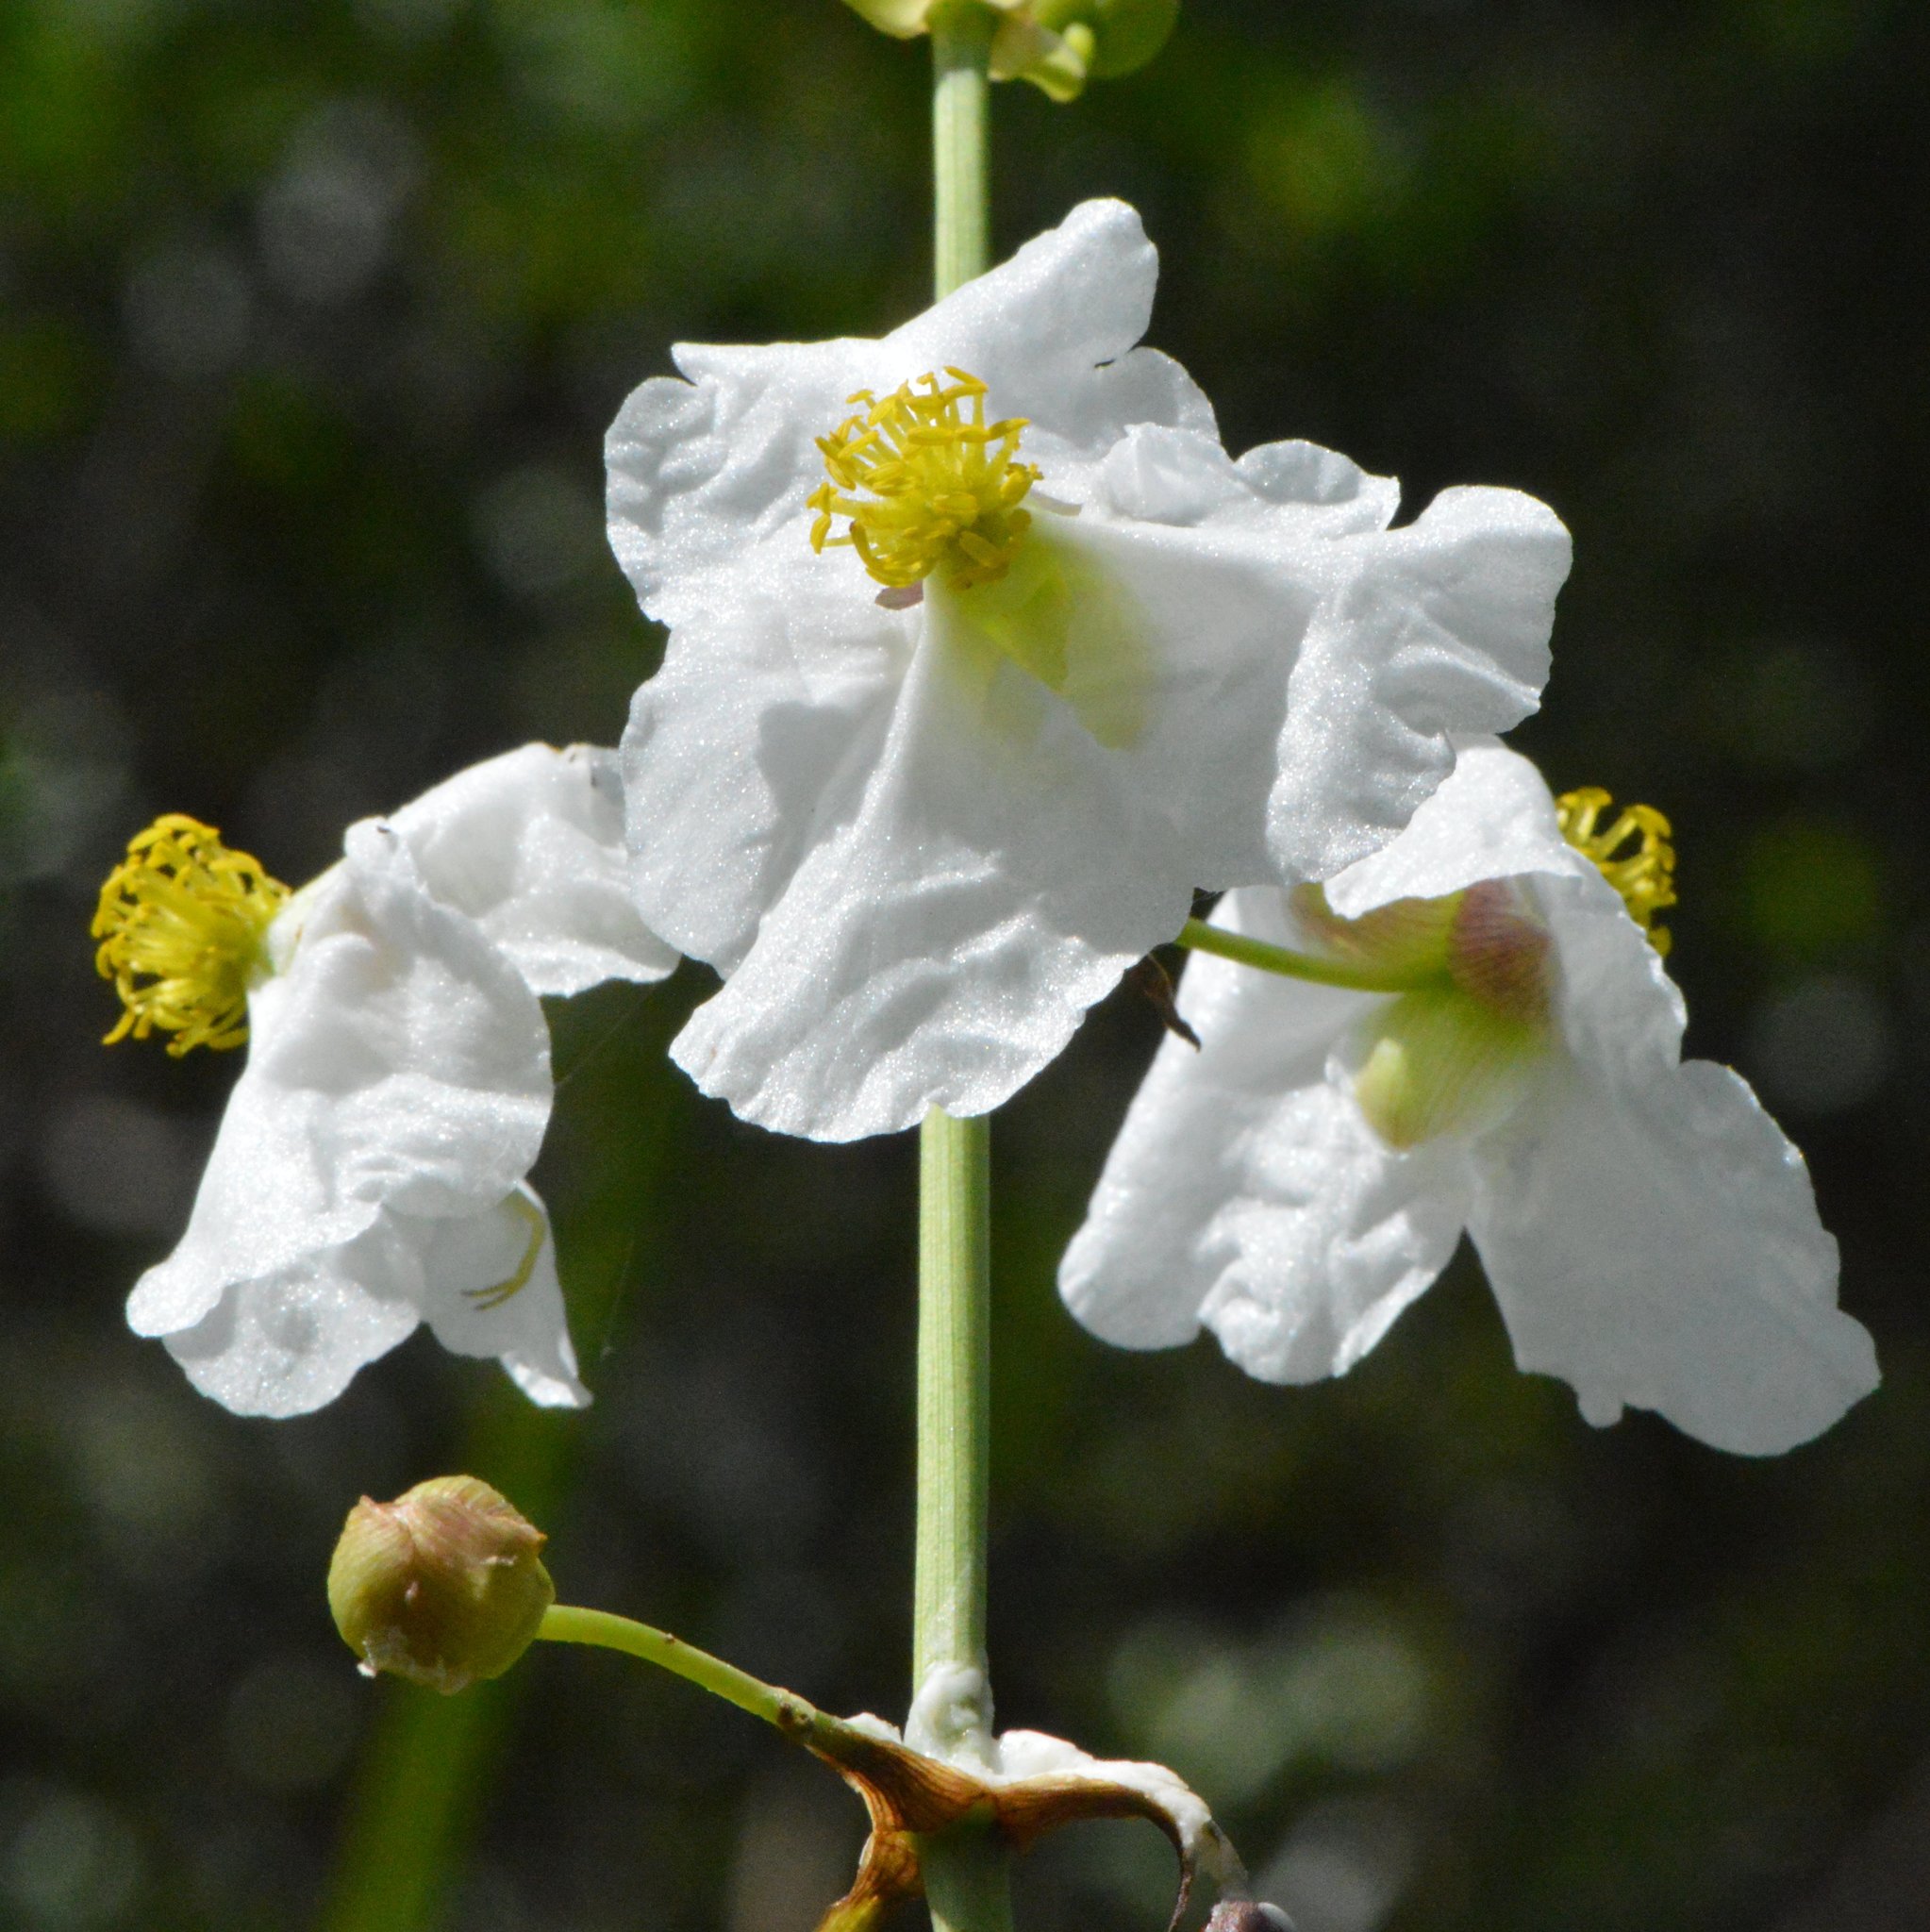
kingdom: Plantae
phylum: Tracheophyta
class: Liliopsida
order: Alismatales
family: Alismataceae
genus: Sagittaria
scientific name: Sagittaria lancifolia
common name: Lance-leaf arrowhead
